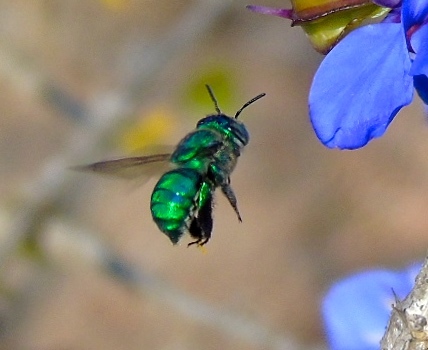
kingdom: Animalia
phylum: Arthropoda
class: Insecta
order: Hymenoptera
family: Apidae
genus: Euglossa
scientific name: Euglossa
